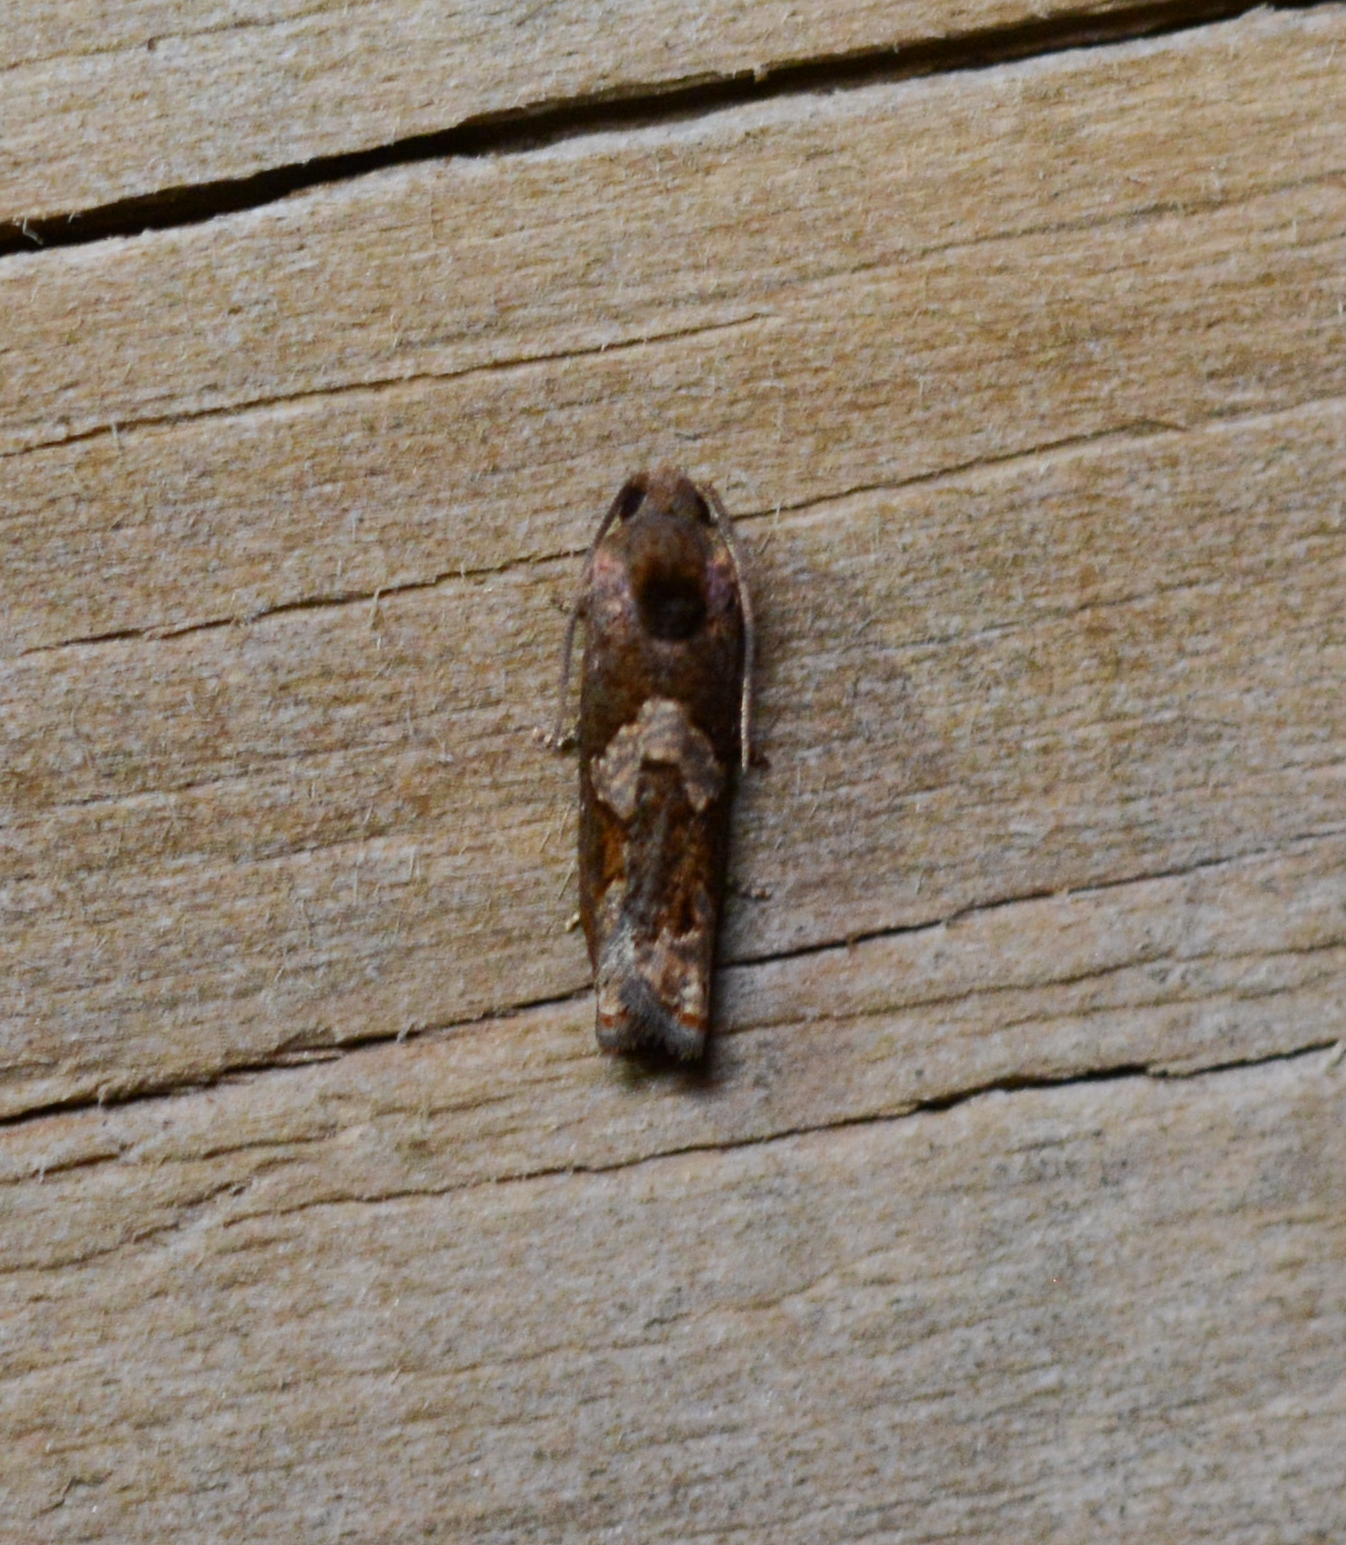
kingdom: Animalia
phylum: Arthropoda
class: Insecta
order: Lepidoptera
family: Tortricidae
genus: Epiblema
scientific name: Epiblema otiosana
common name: Bidens borer moth
